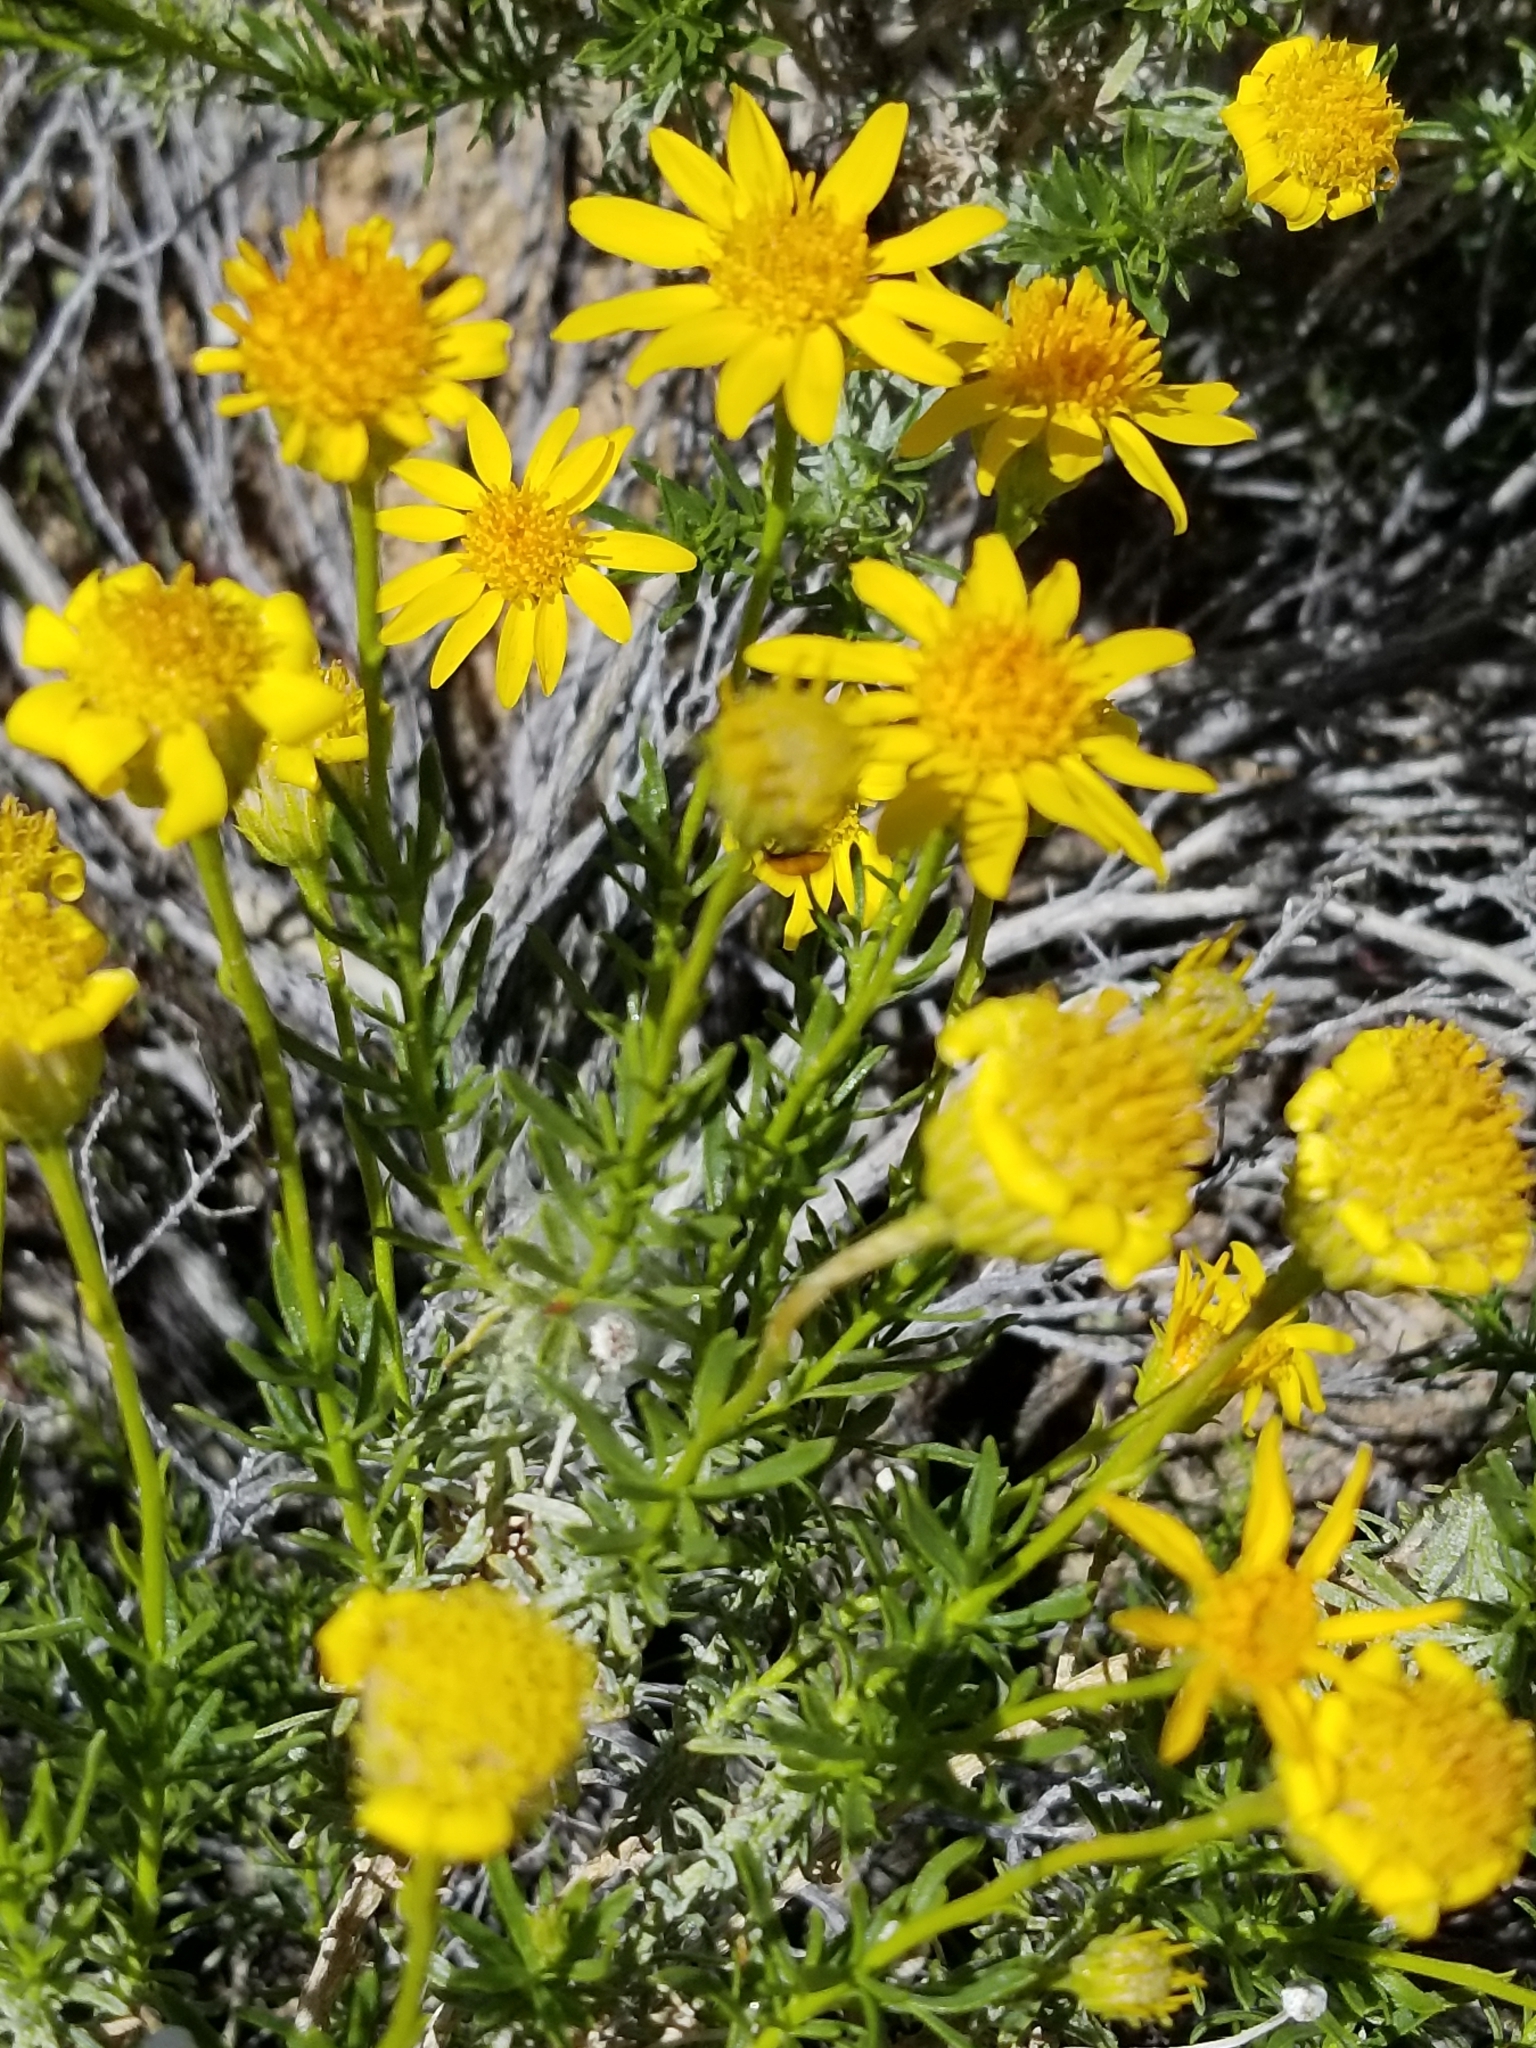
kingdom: Plantae
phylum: Tracheophyta
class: Magnoliopsida
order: Asterales
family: Asteraceae
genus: Ericameria
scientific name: Ericameria linearifolia
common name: Interior goldenbush
